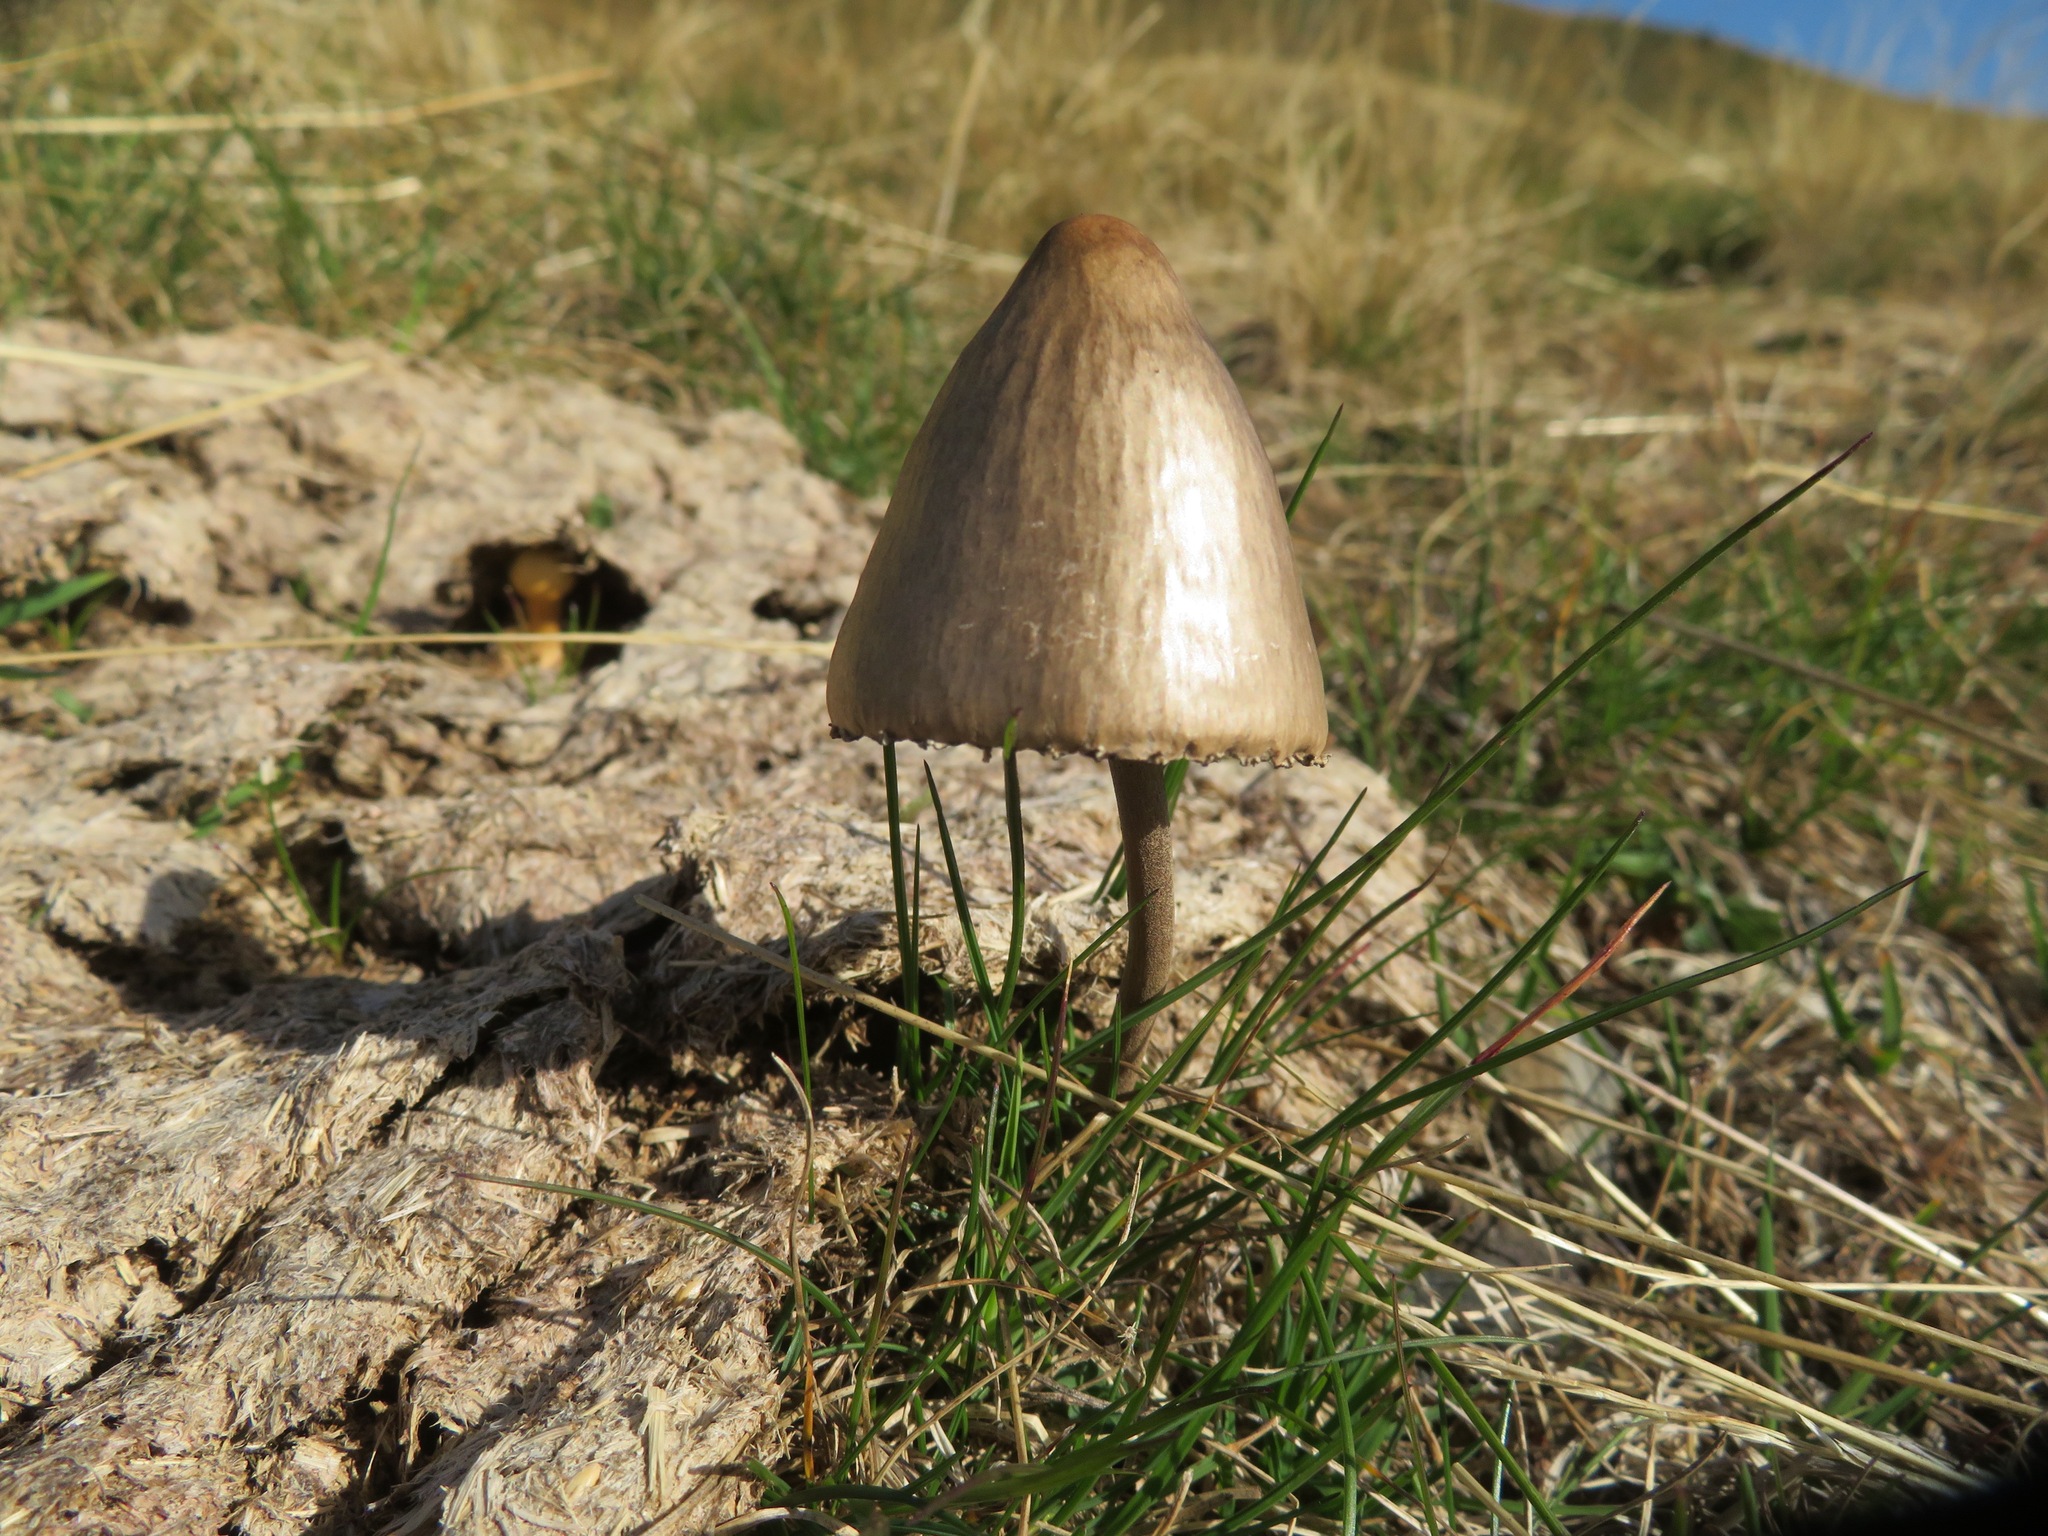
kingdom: Fungi
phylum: Basidiomycota
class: Agaricomycetes
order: Agaricales
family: Bolbitiaceae
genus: Panaeolus
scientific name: Panaeolus papilionaceus
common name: Petticoat mottlegill
